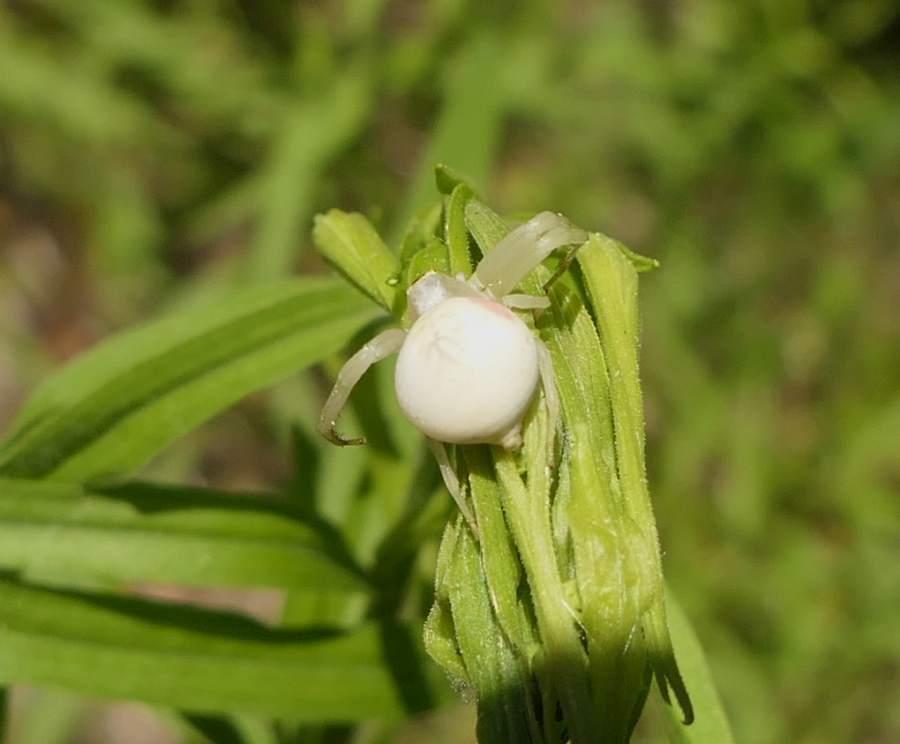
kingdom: Animalia
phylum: Arthropoda
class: Arachnida
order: Araneae
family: Thomisidae
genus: Misumena
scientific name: Misumena vatia
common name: Goldenrod crab spider
